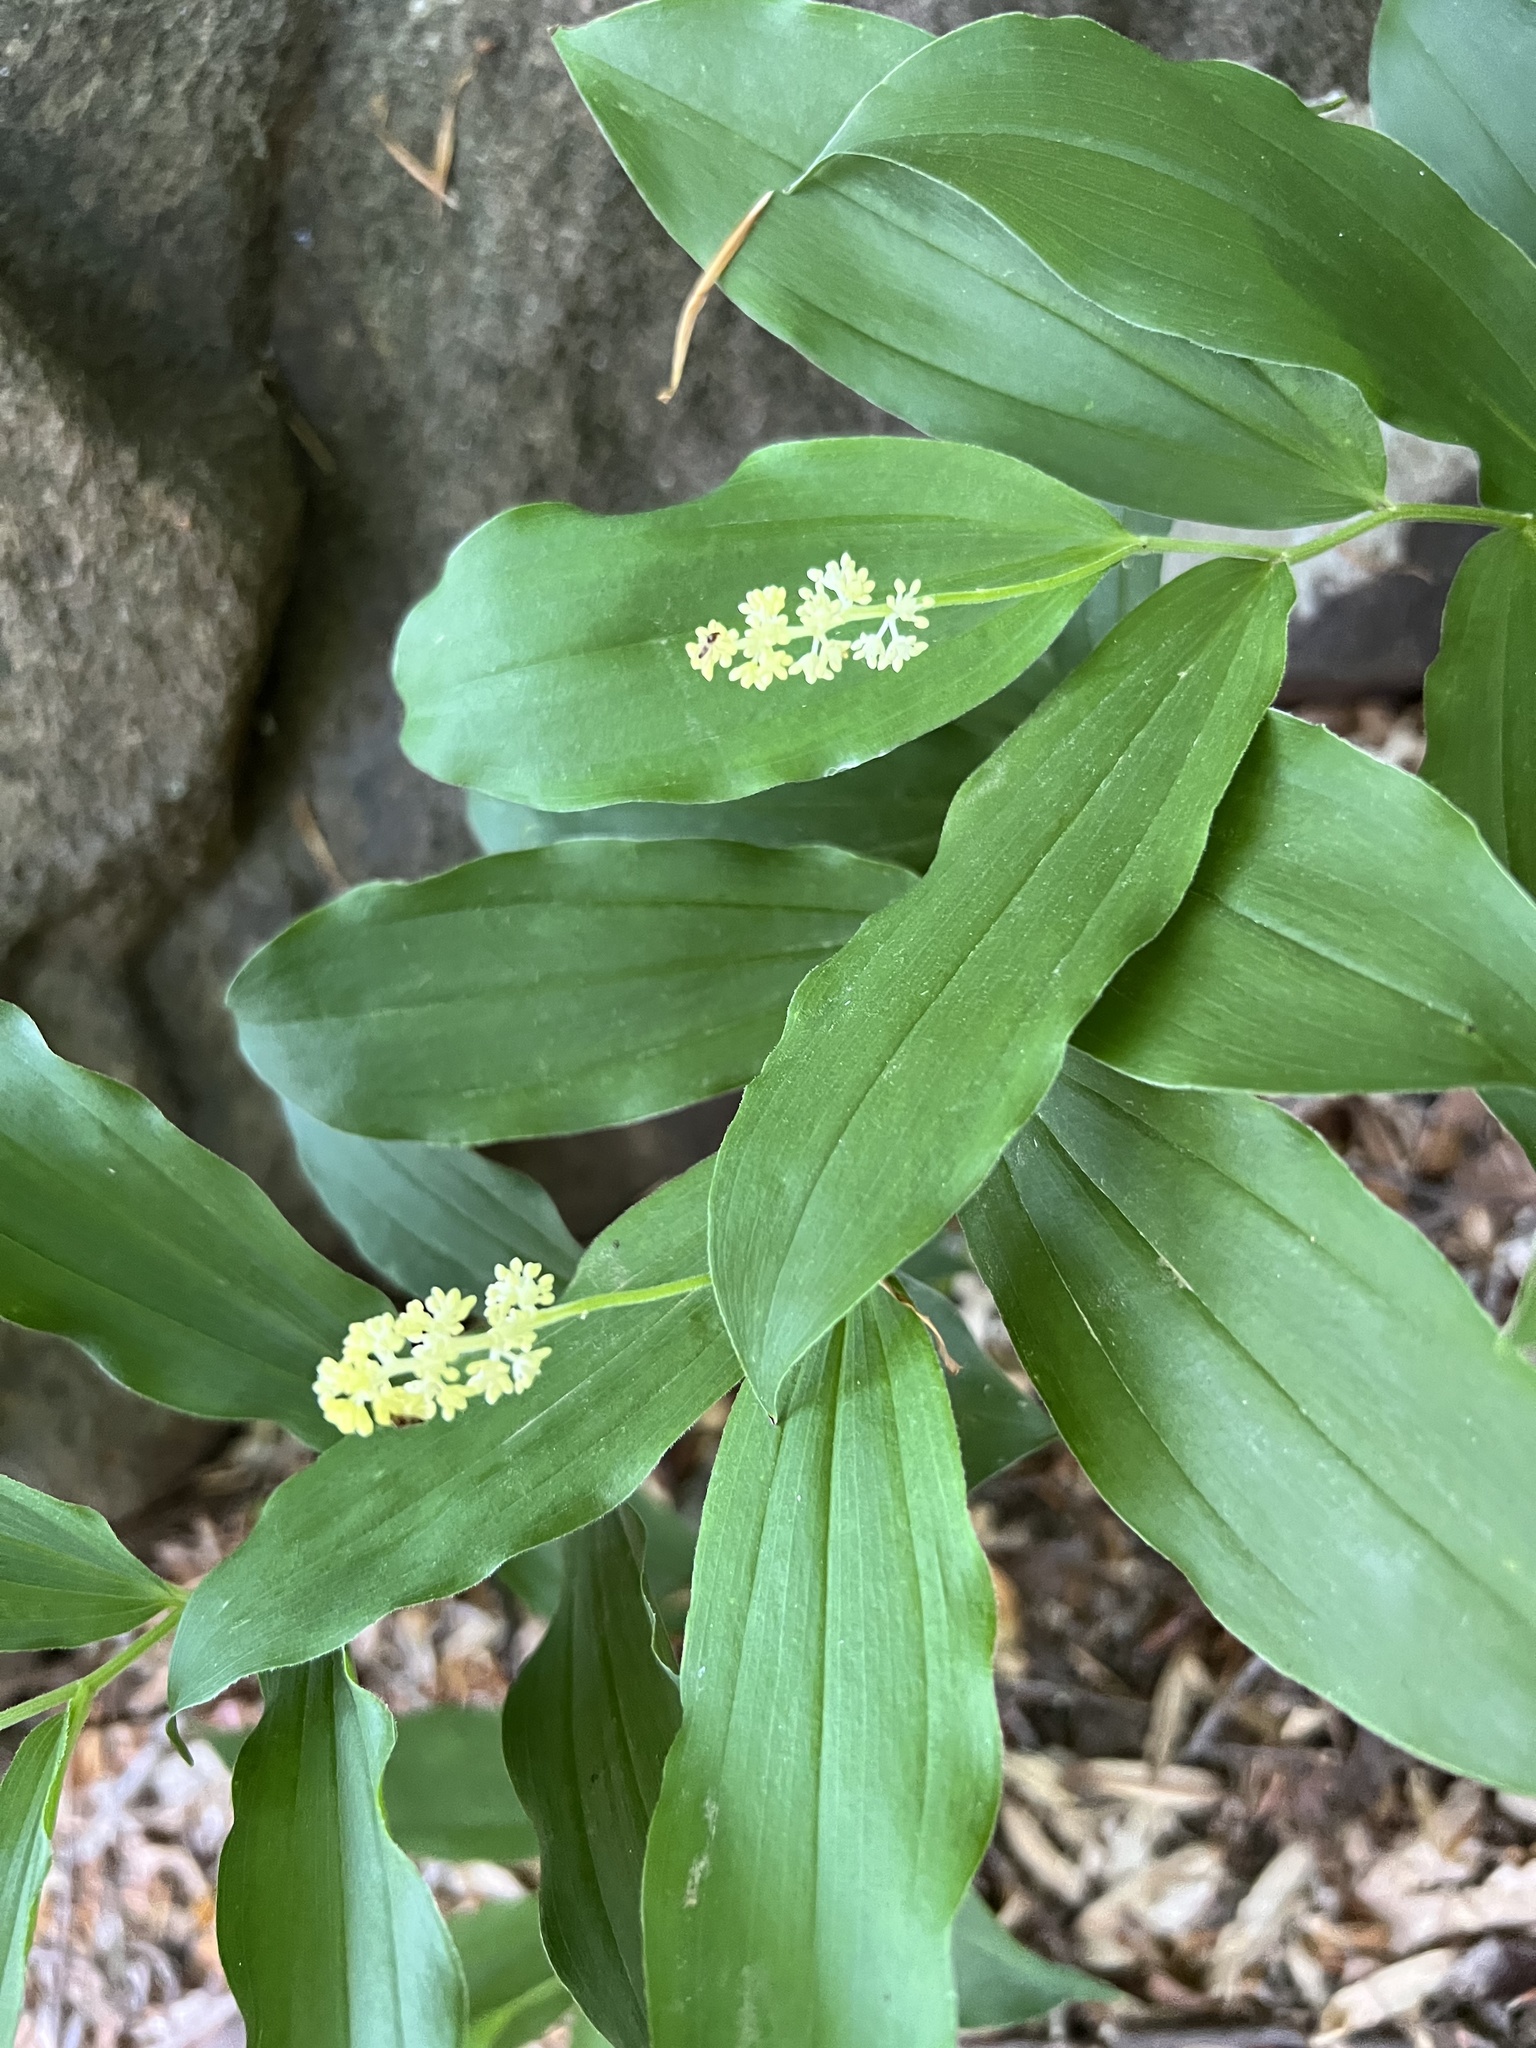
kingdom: Plantae
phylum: Tracheophyta
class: Liliopsida
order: Asparagales
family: Asparagaceae
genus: Maianthemum
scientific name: Maianthemum racemosum
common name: False spikenard
